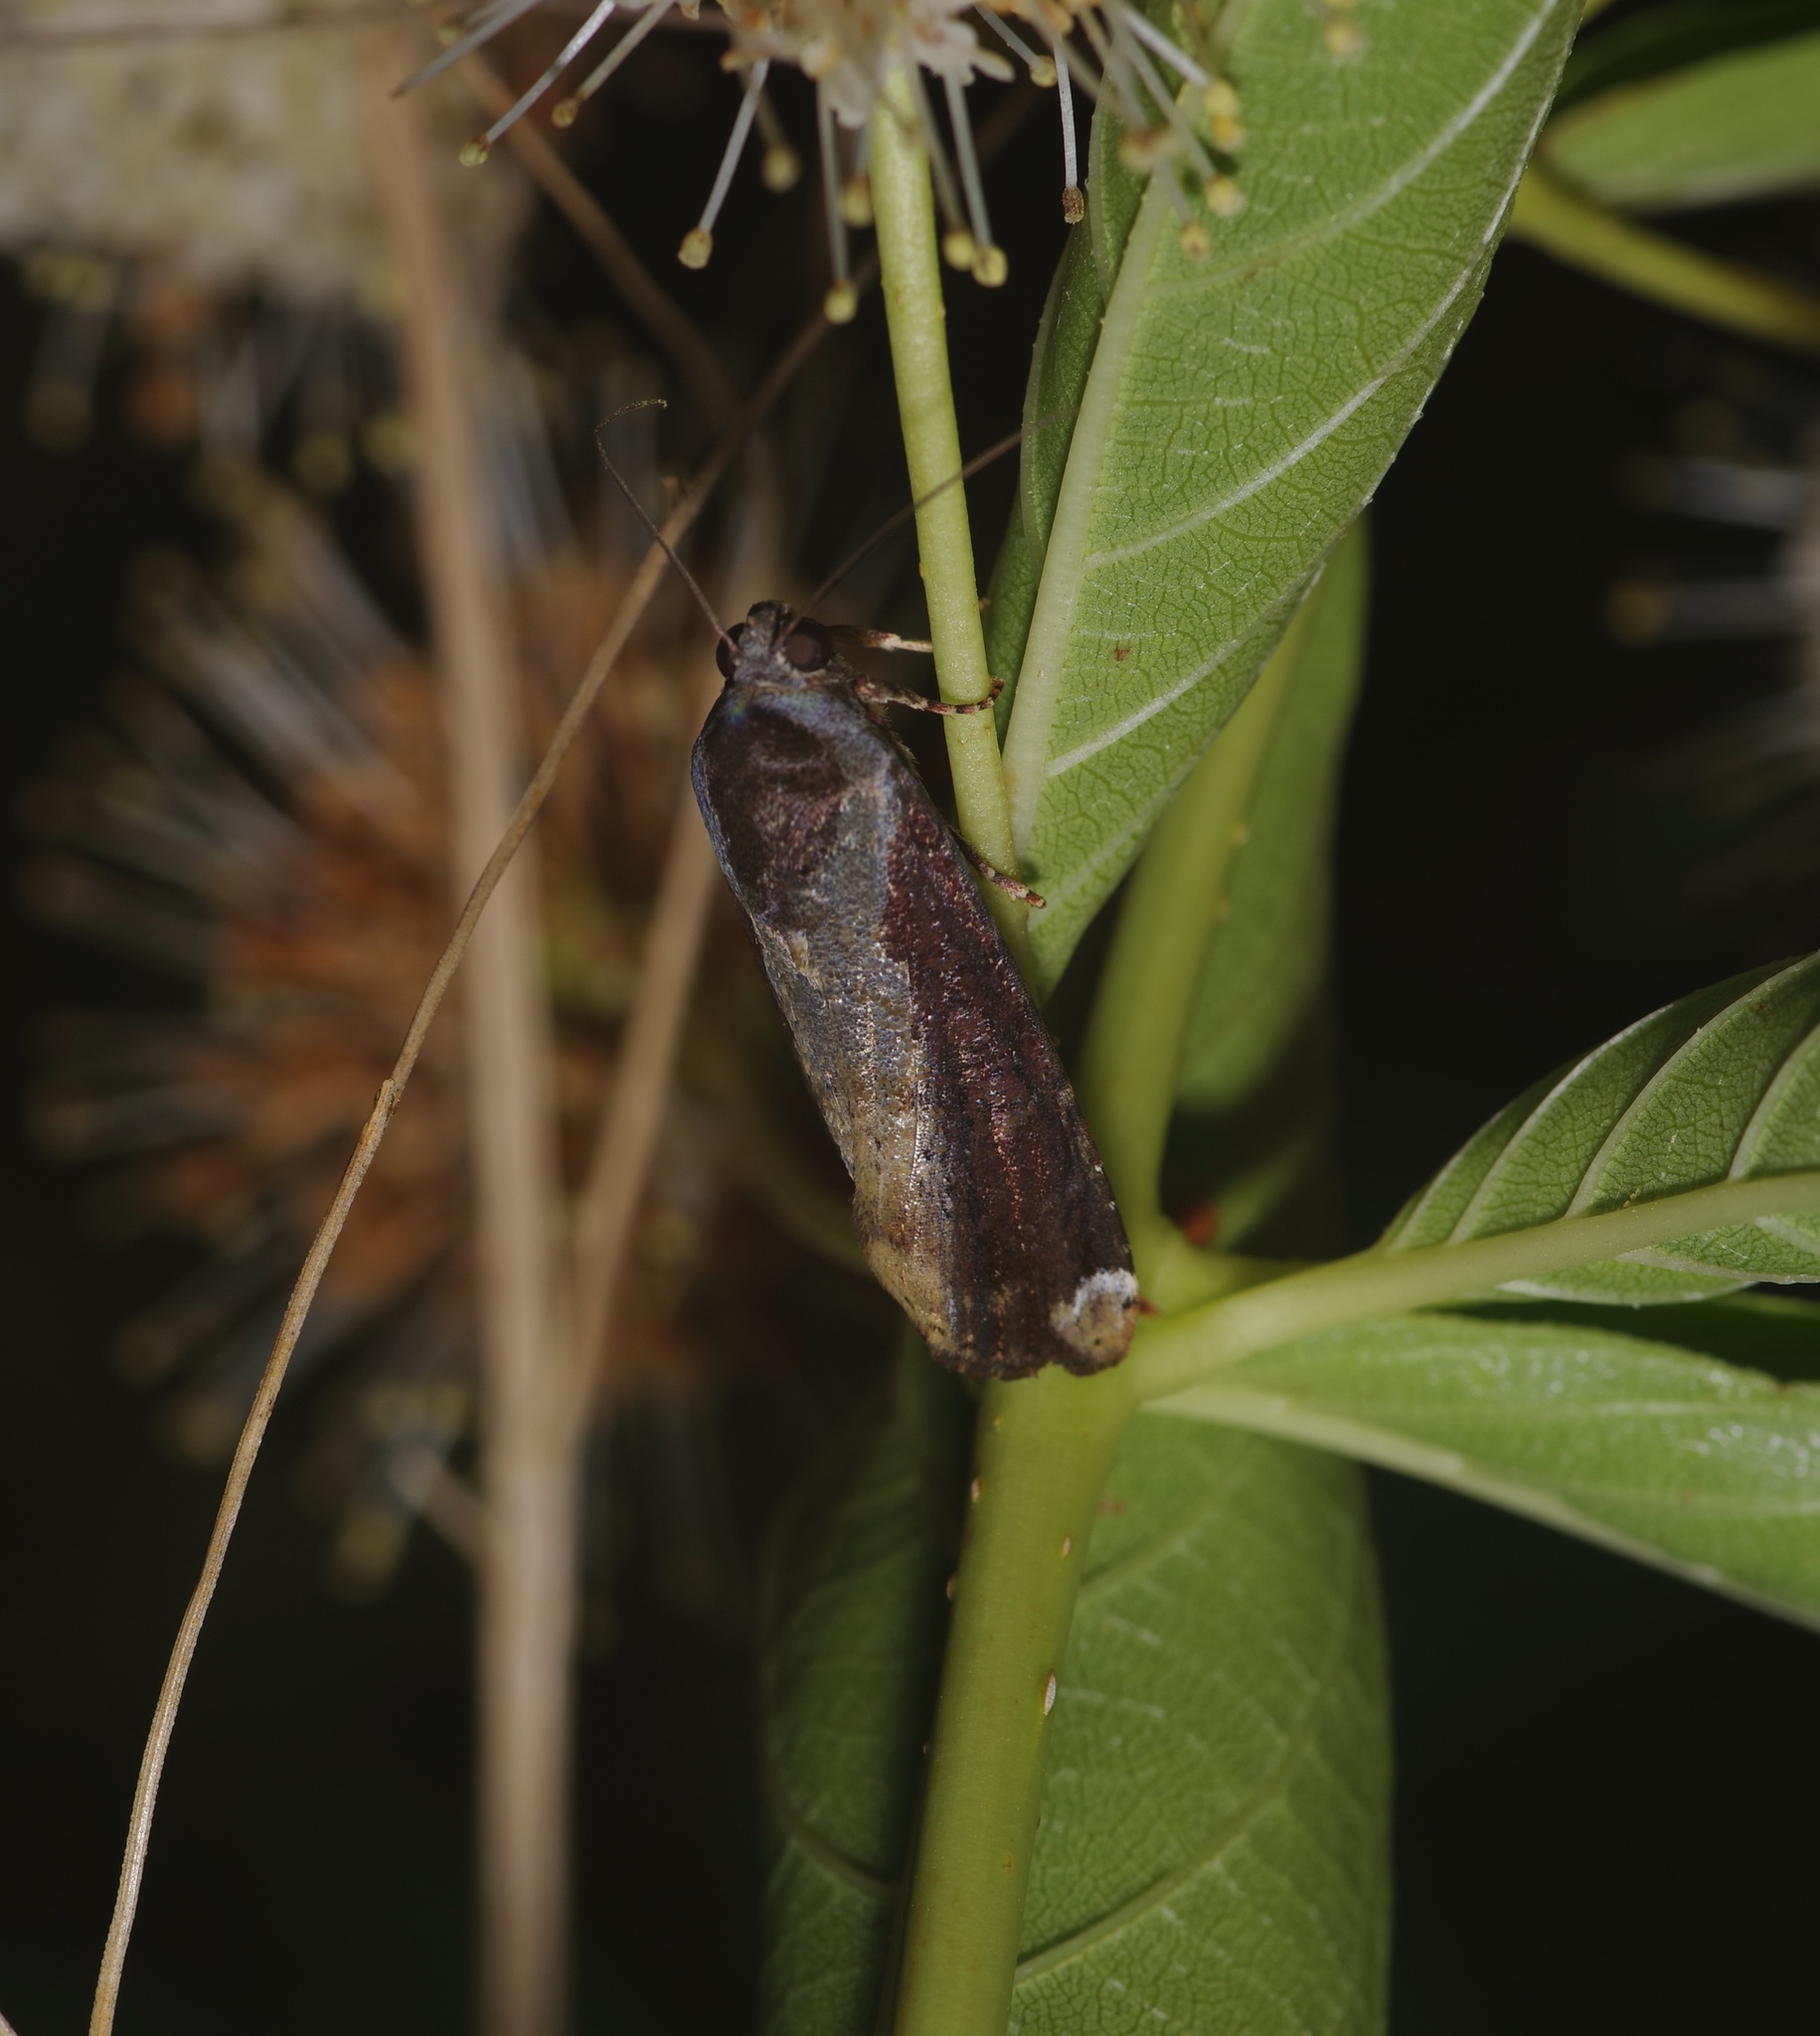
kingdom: Animalia
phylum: Arthropoda
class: Insecta
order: Lepidoptera
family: Noctuidae
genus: Magusa
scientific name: Magusa divaricata
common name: Orb narrow-winged moth
